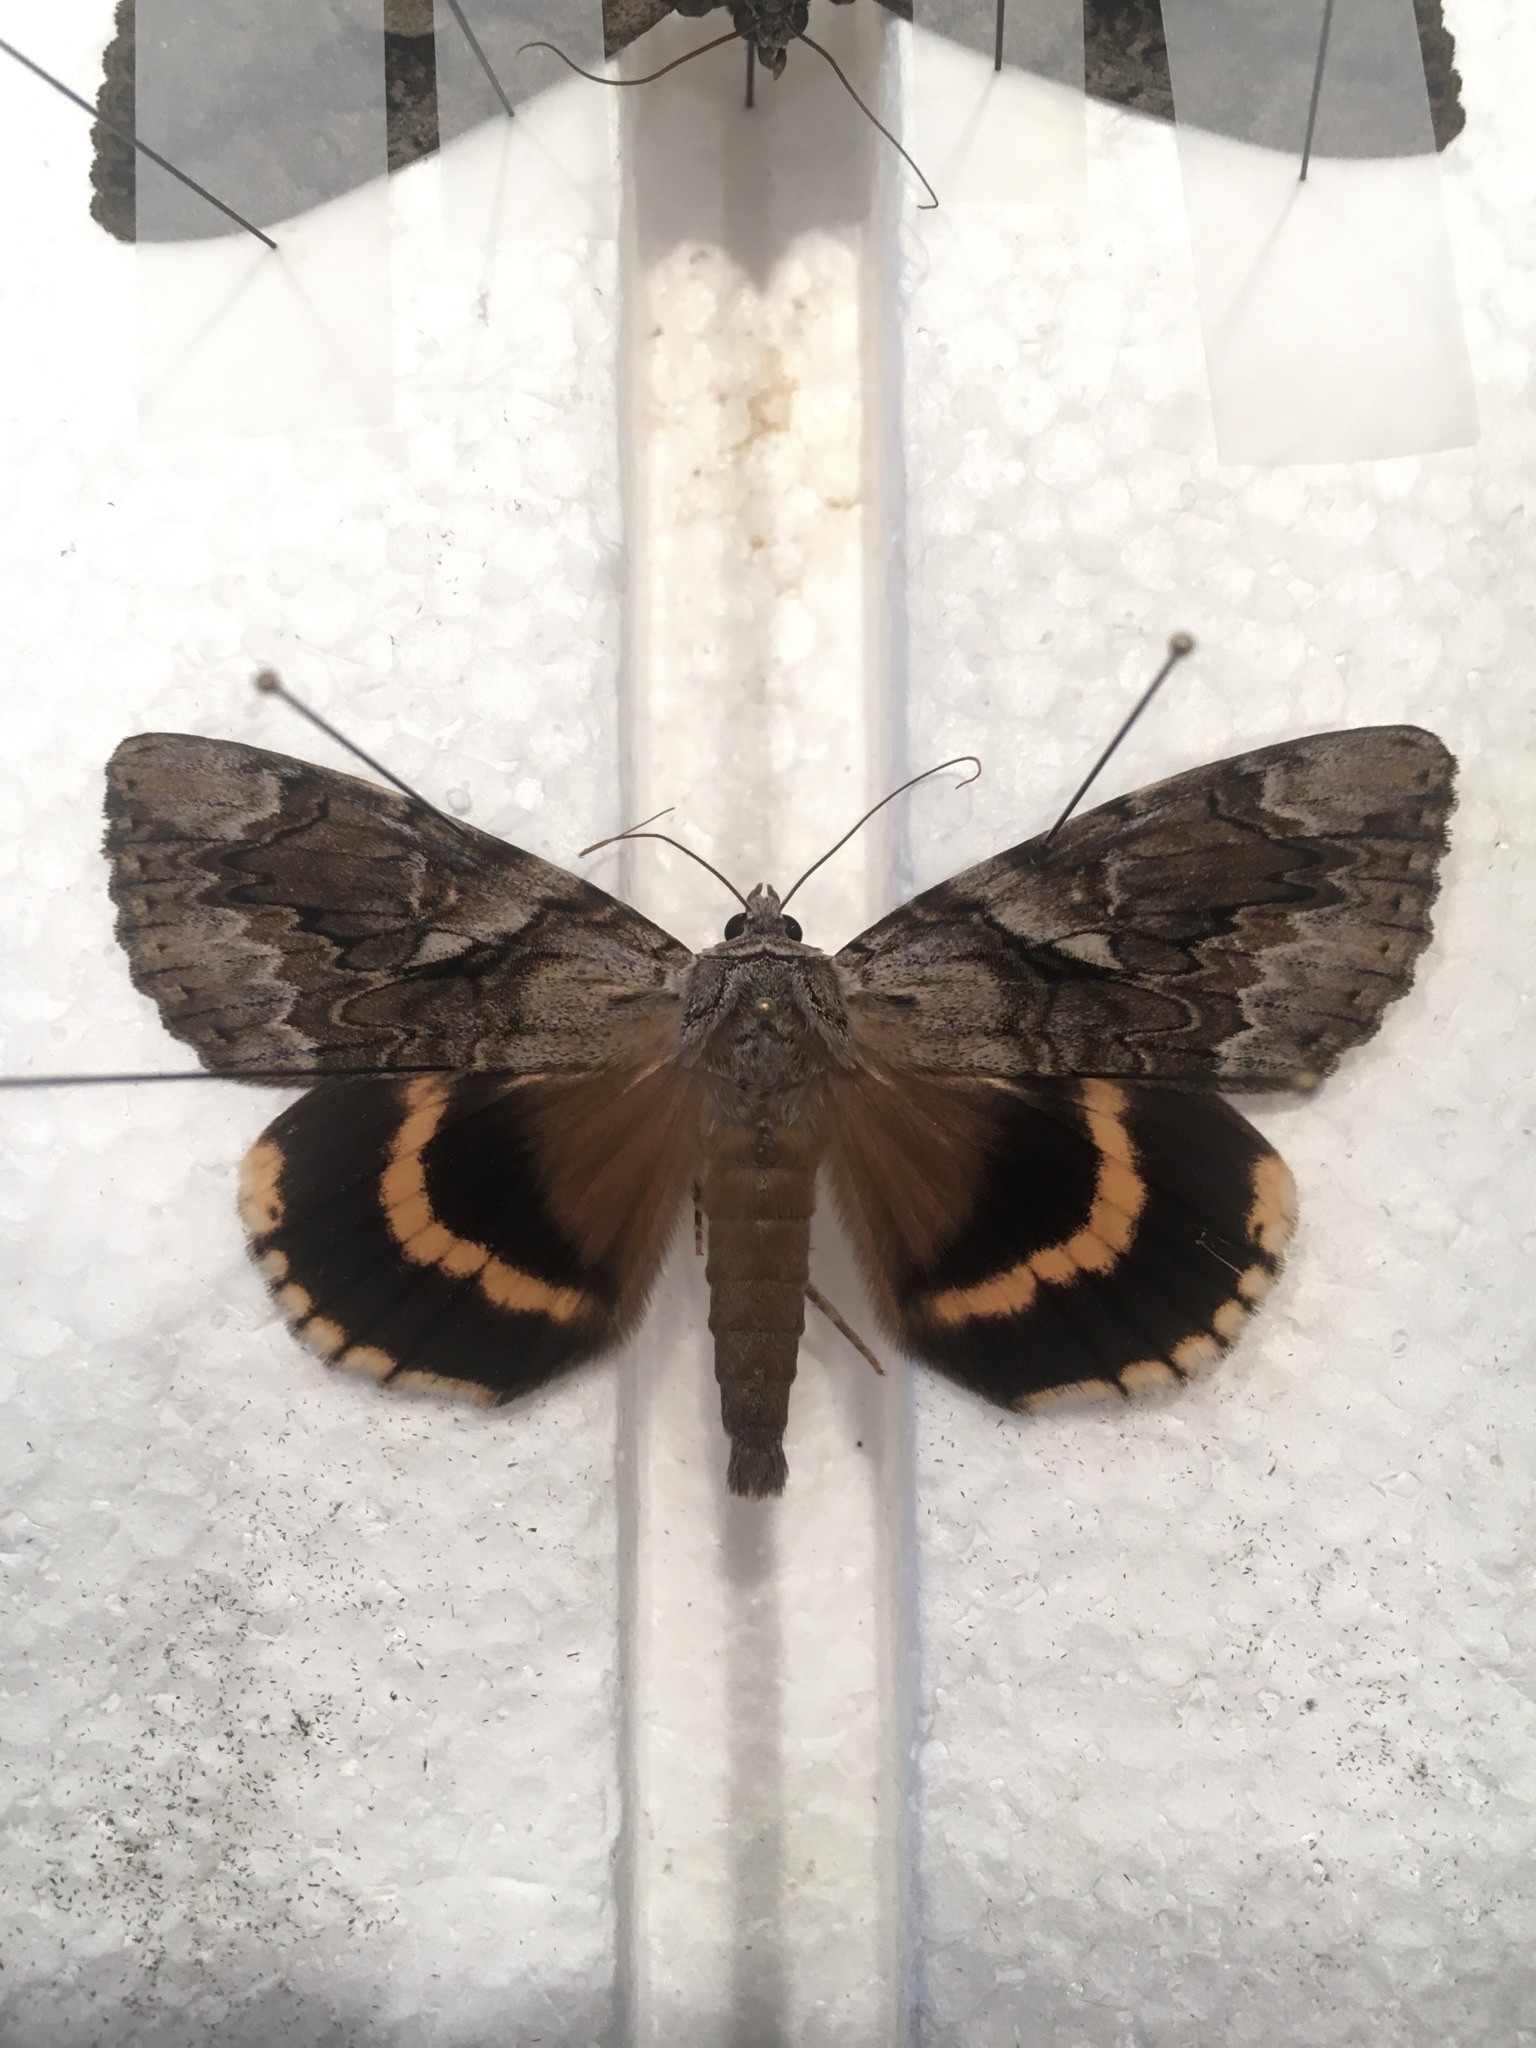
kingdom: Animalia
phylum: Arthropoda
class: Insecta
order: Lepidoptera
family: Erebidae
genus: Catocala
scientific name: Catocala cerogama
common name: Yellow banded underwing
